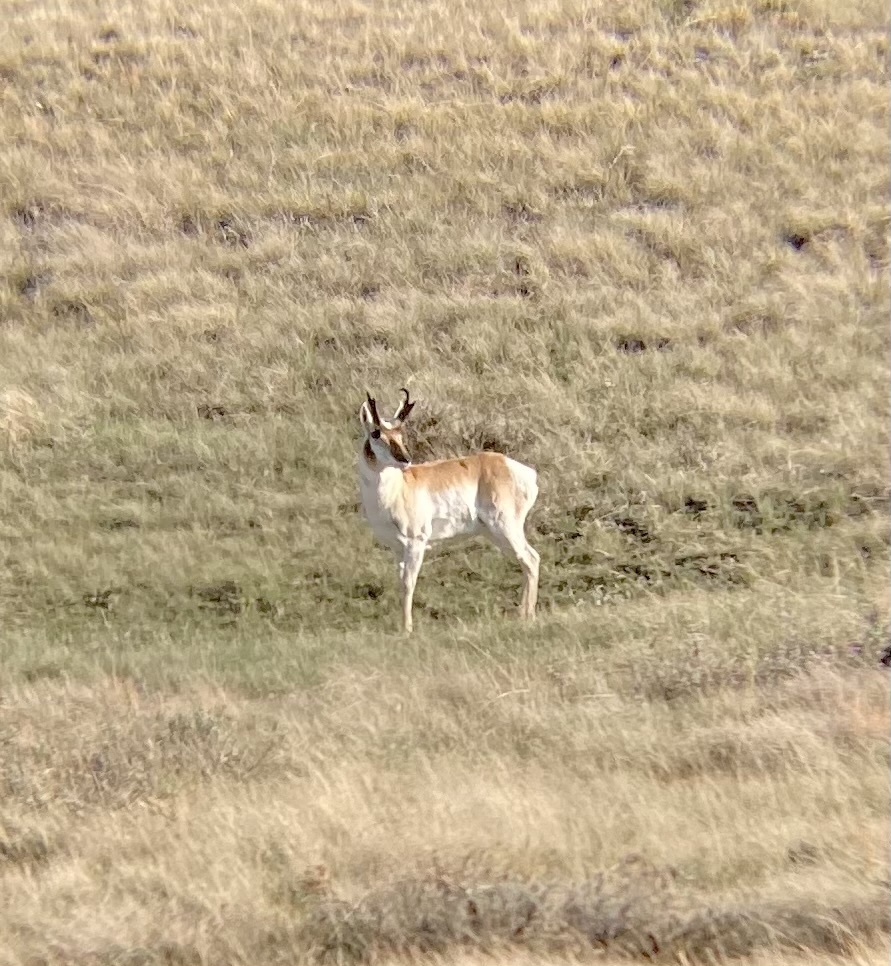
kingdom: Animalia
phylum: Chordata
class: Mammalia
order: Artiodactyla
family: Antilocapridae
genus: Antilocapra
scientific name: Antilocapra americana
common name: Pronghorn
